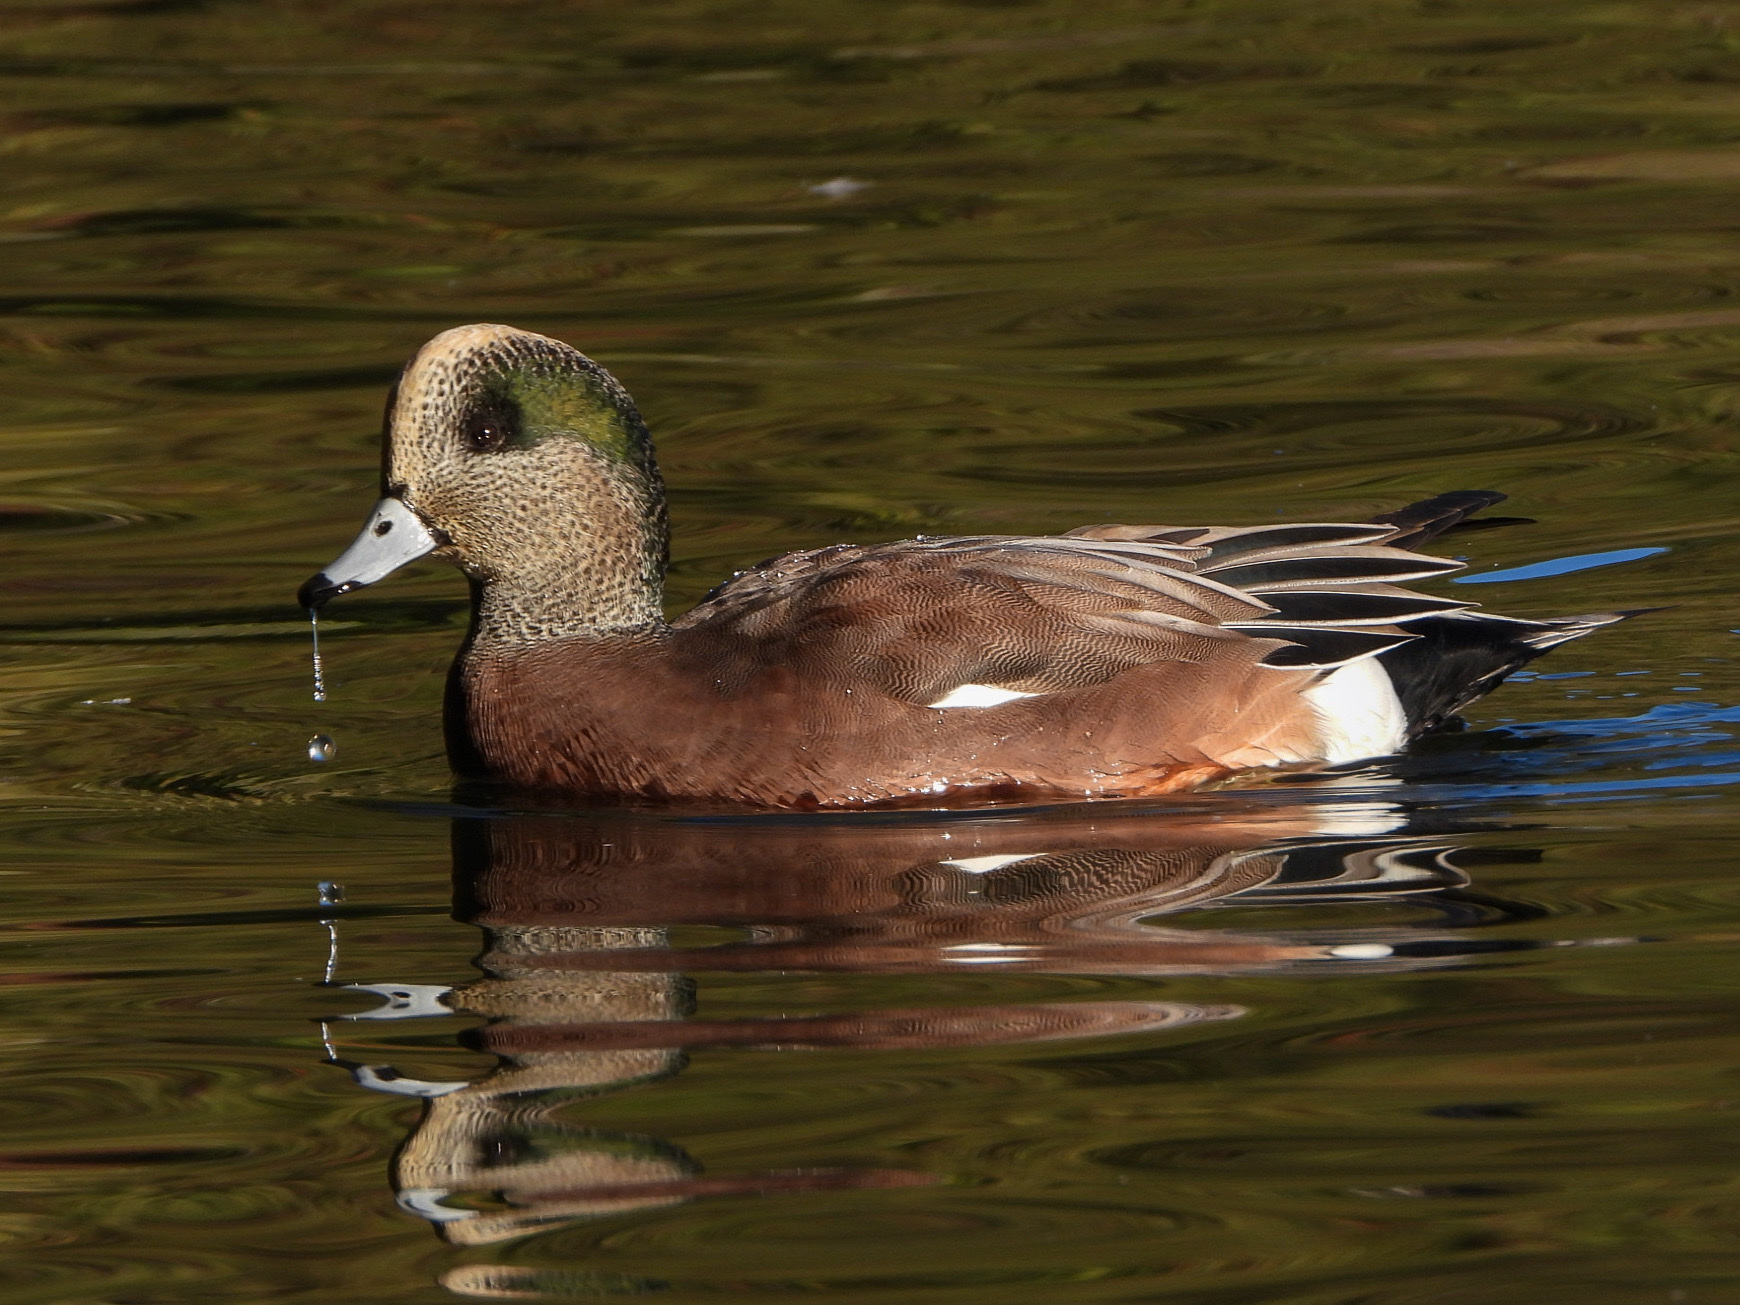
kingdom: Animalia
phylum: Chordata
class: Aves
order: Anseriformes
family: Anatidae
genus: Mareca
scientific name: Mareca americana
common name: American wigeon
